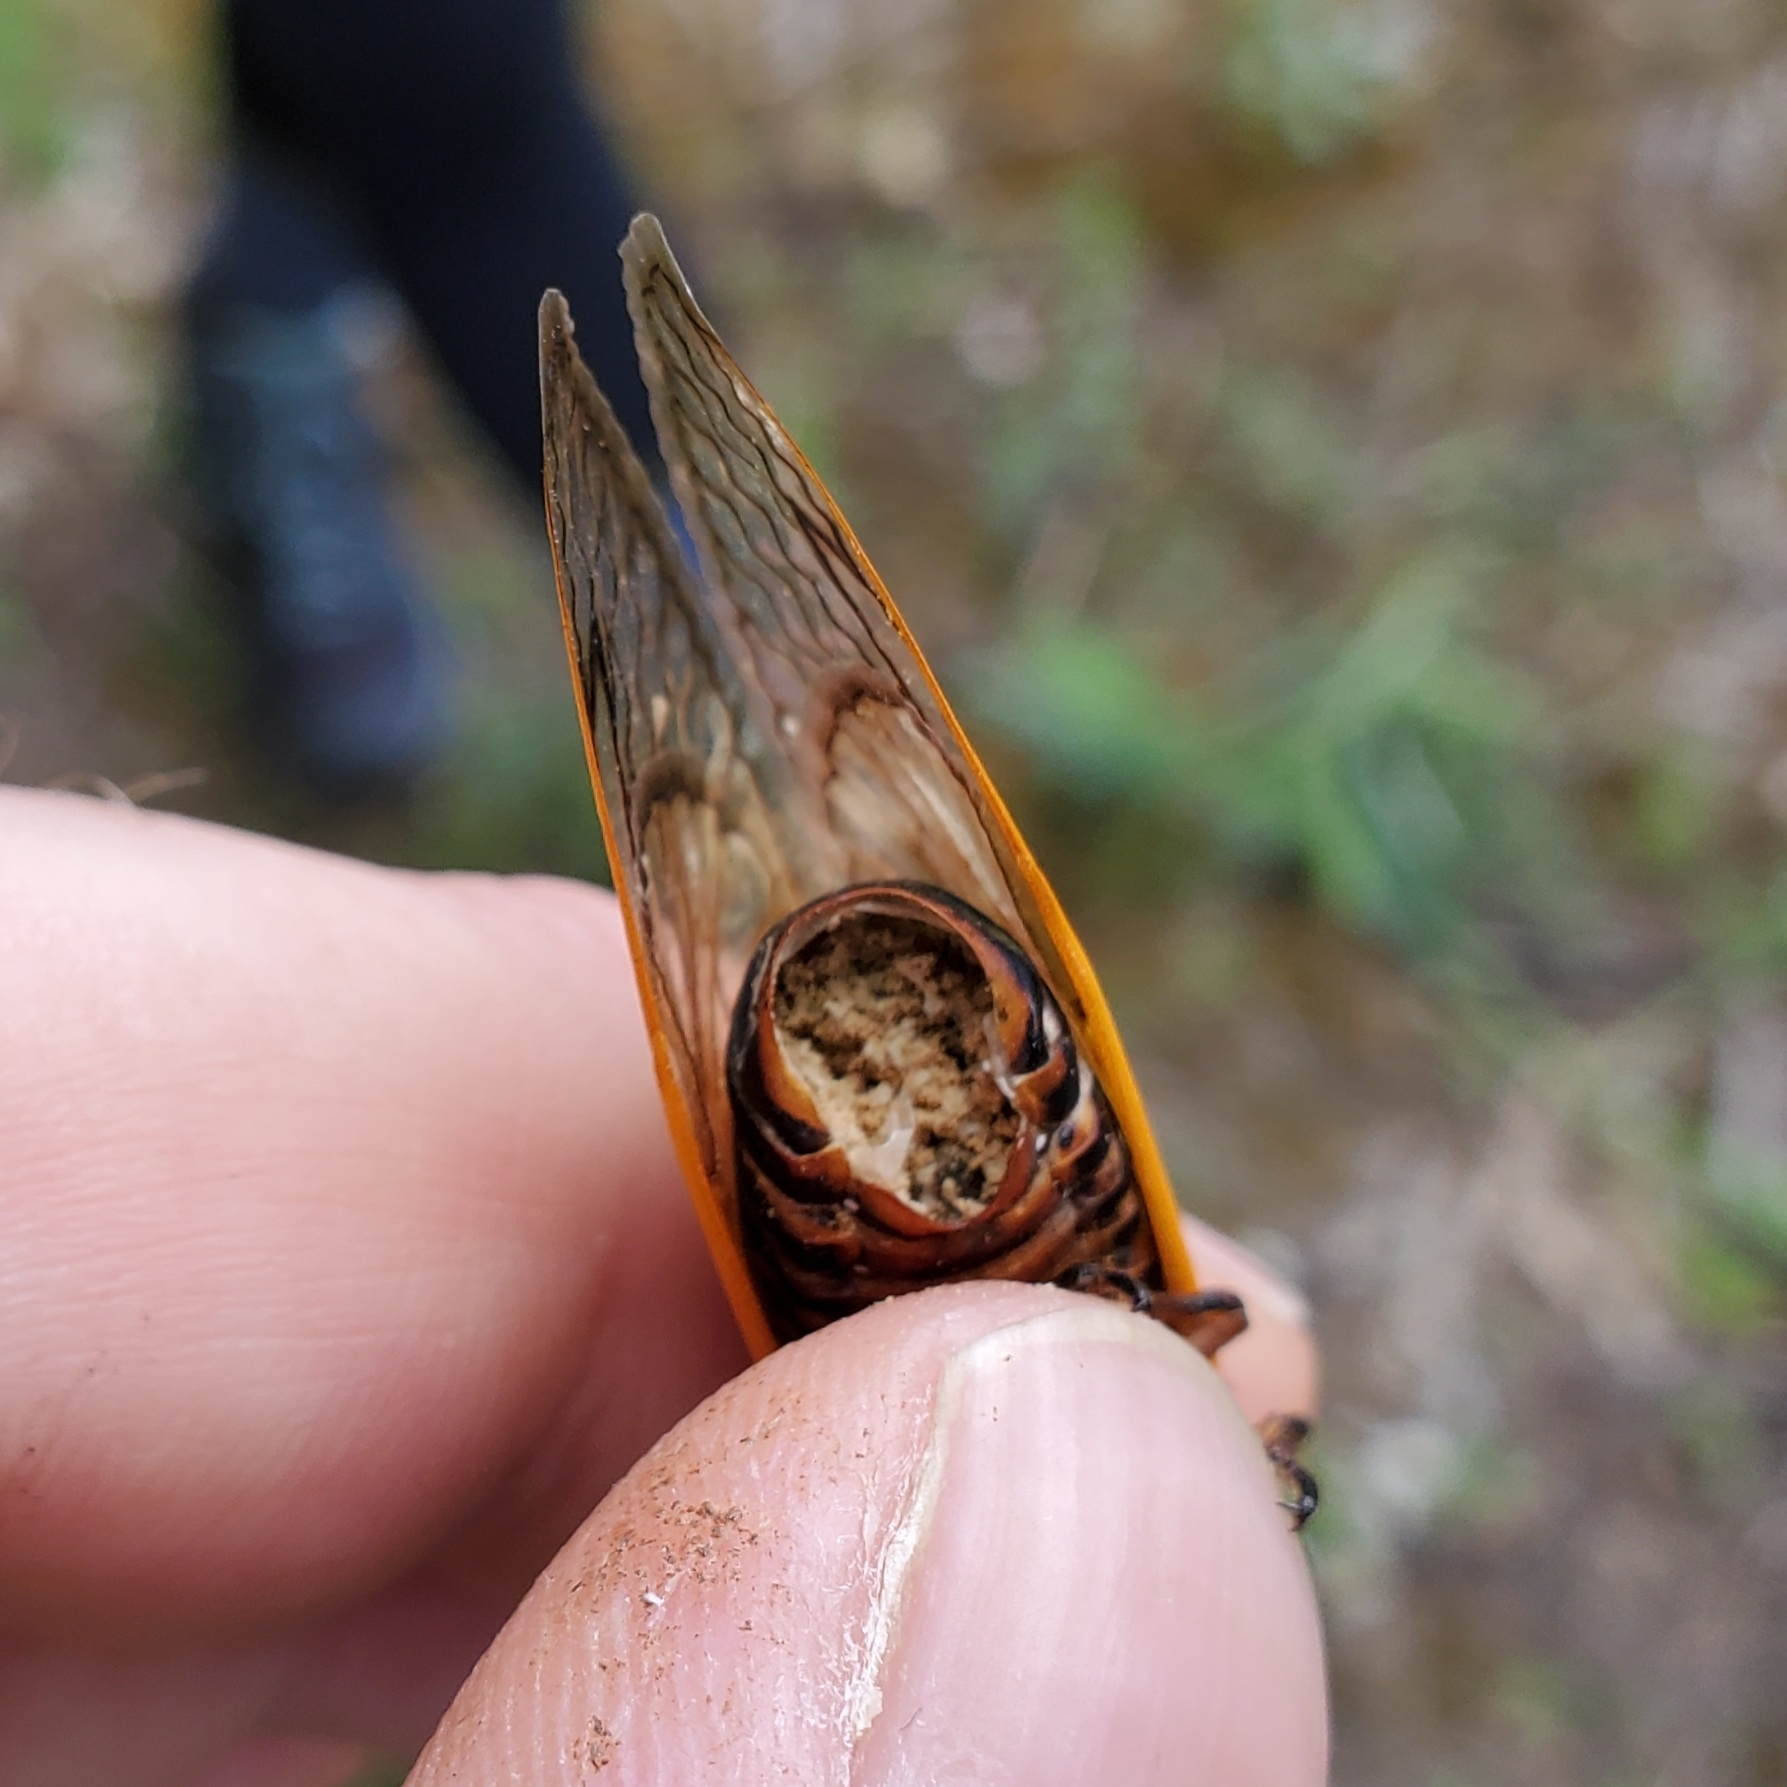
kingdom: Animalia
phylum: Arthropoda
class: Insecta
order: Hemiptera
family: Cicadidae
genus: Magicicada
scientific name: Magicicada septendecim
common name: Periodical cicada
